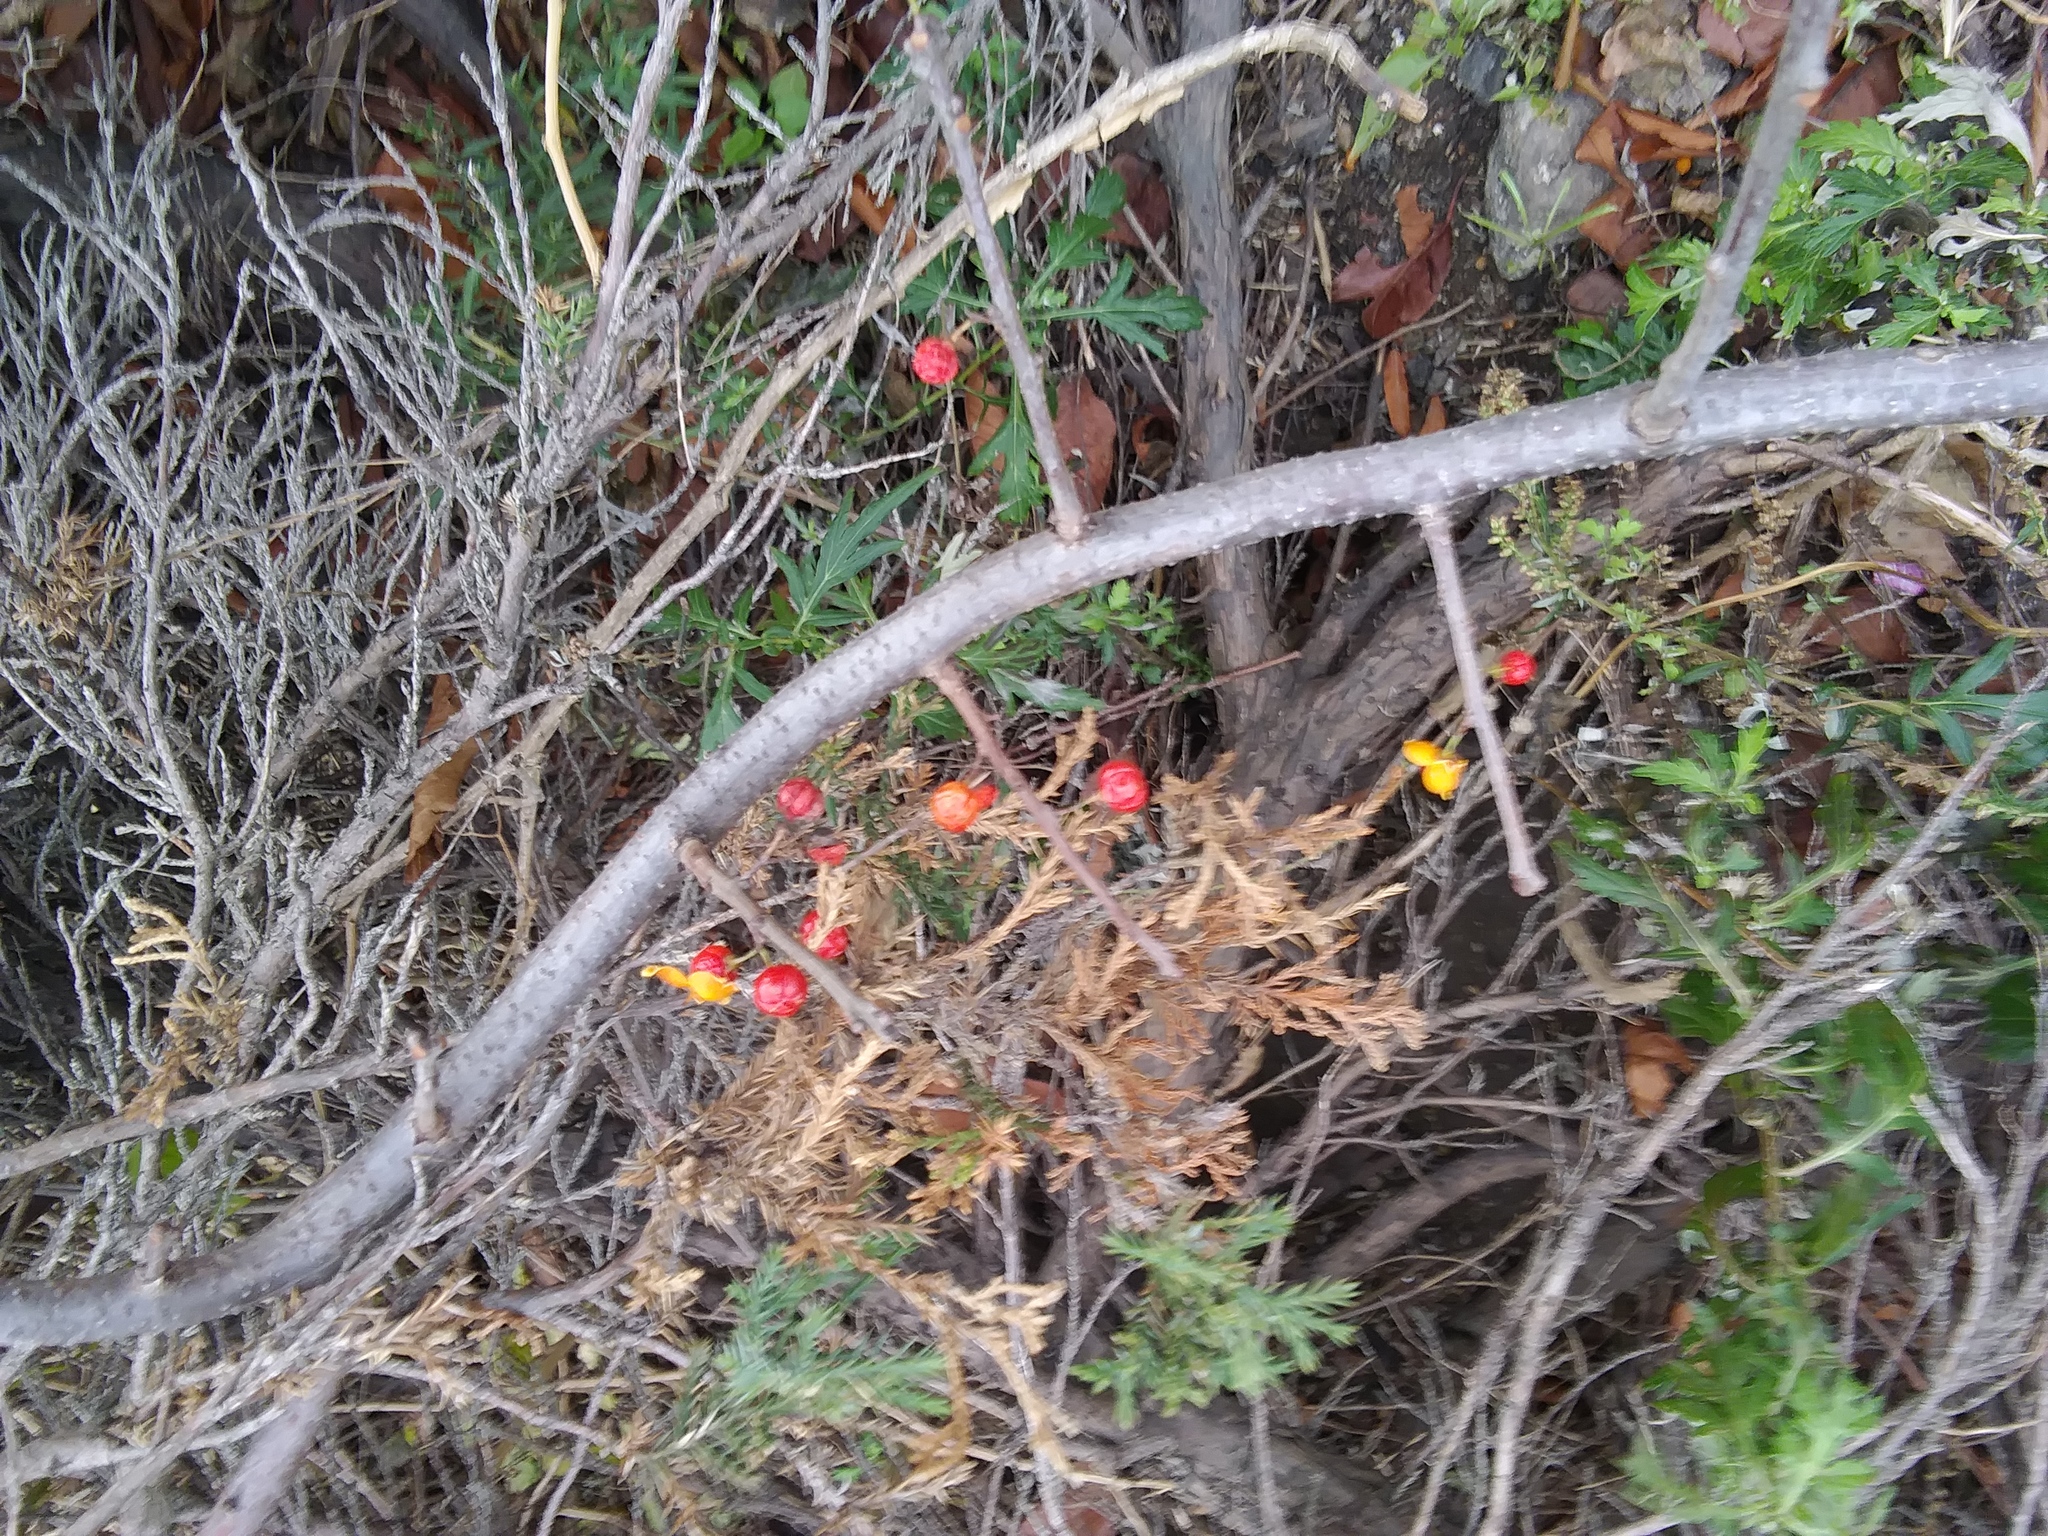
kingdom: Plantae
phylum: Tracheophyta
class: Magnoliopsida
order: Celastrales
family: Celastraceae
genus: Celastrus
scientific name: Celastrus orbiculatus
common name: Oriental bittersweet
